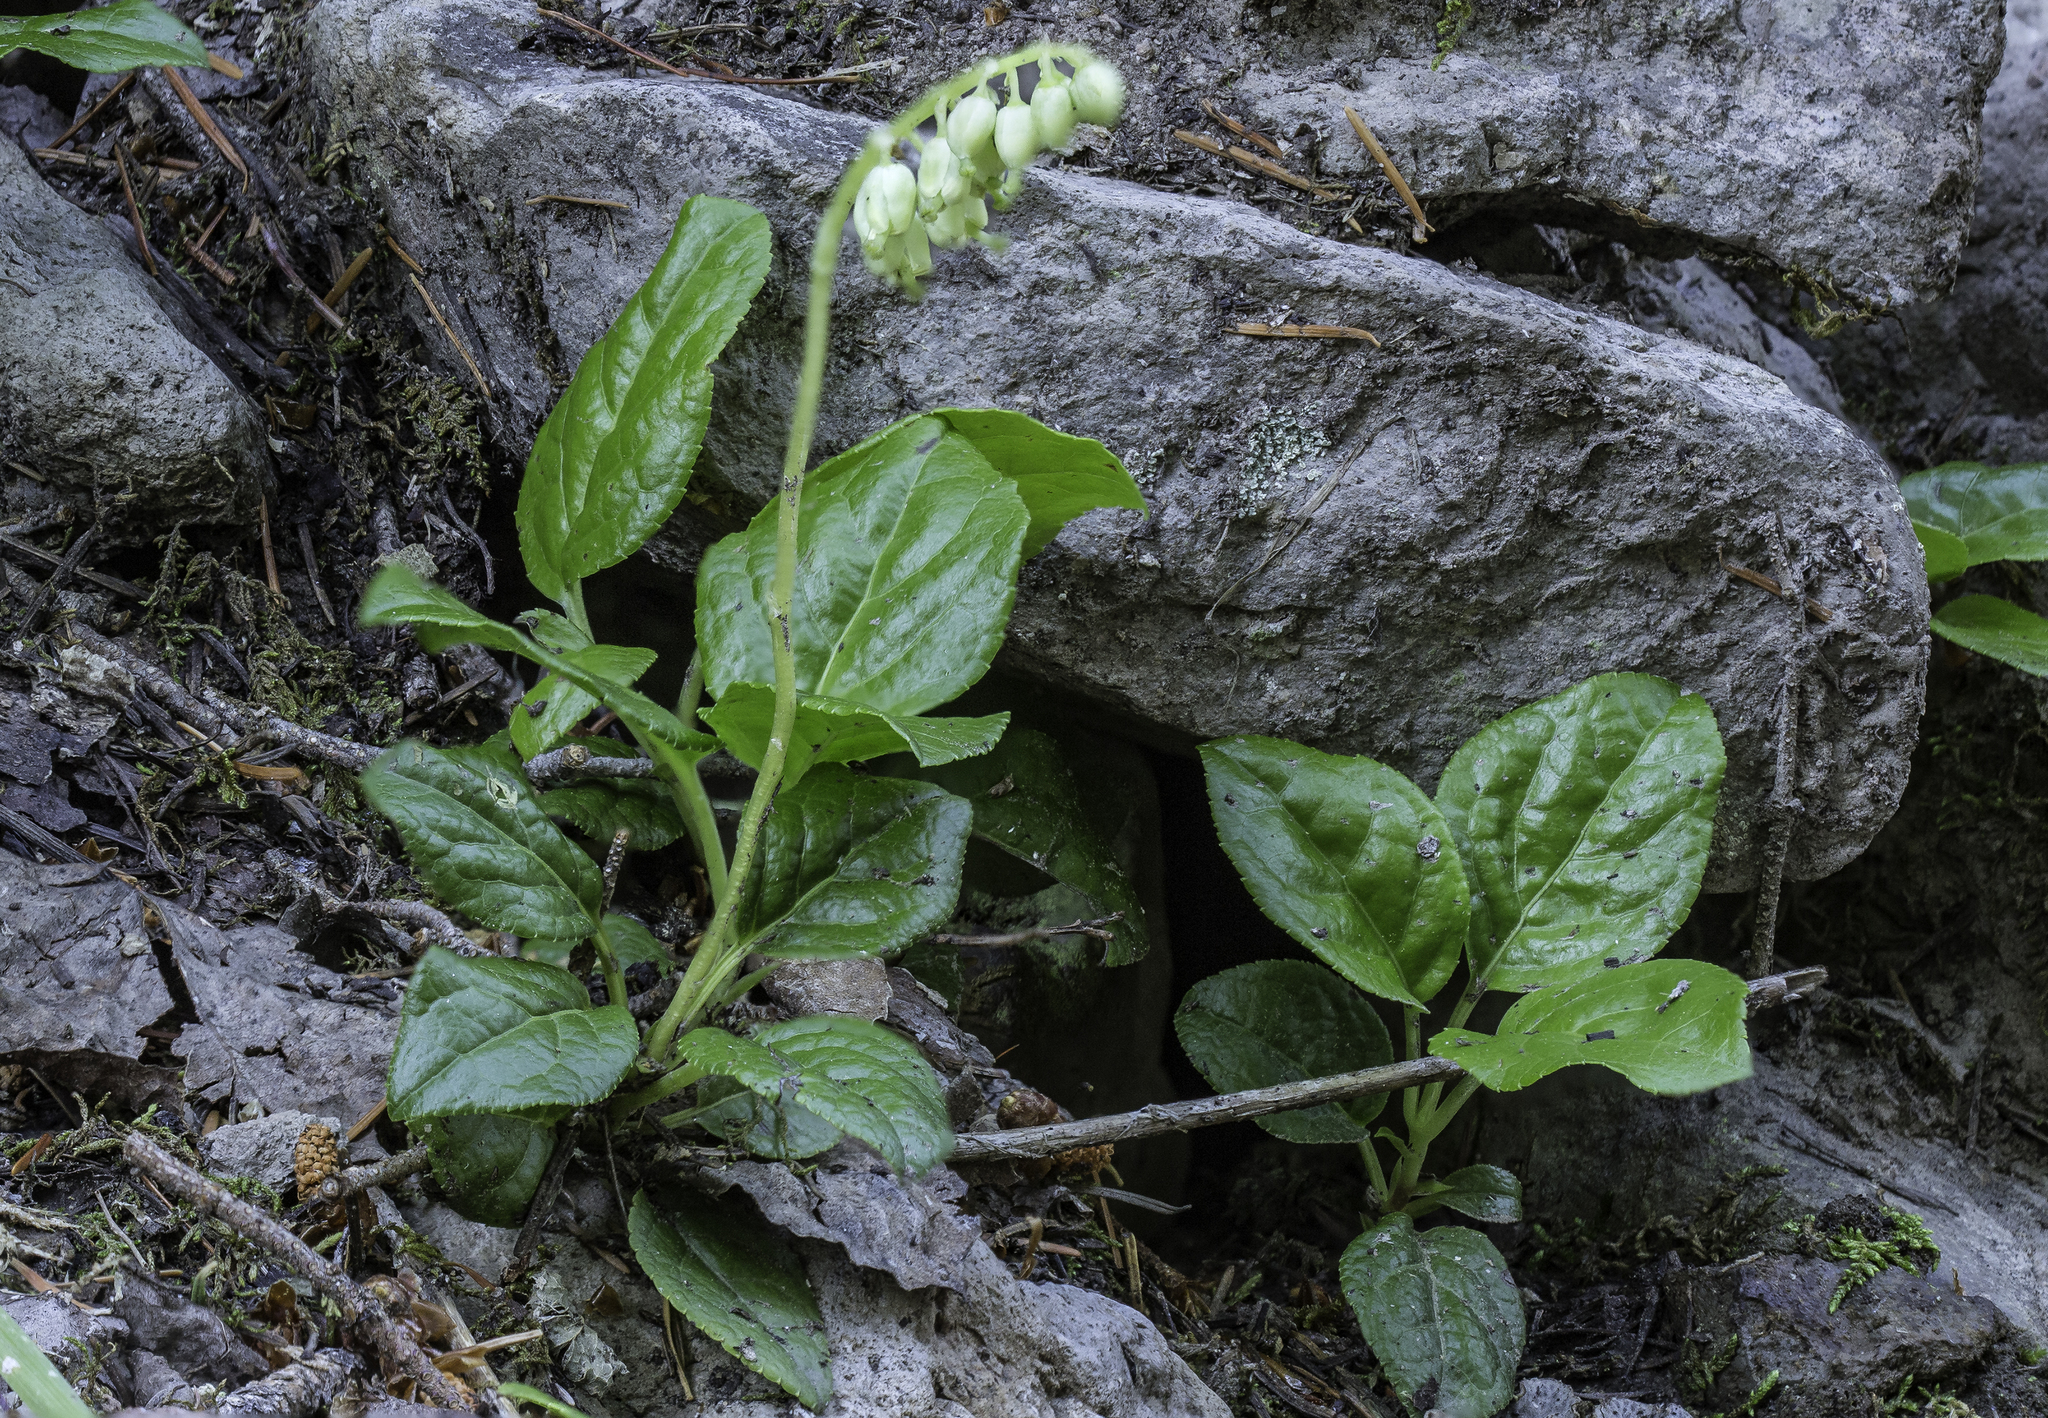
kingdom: Plantae
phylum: Tracheophyta
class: Magnoliopsida
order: Ericales
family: Ericaceae
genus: Orthilia
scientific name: Orthilia secunda
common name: One-sided orthilia
